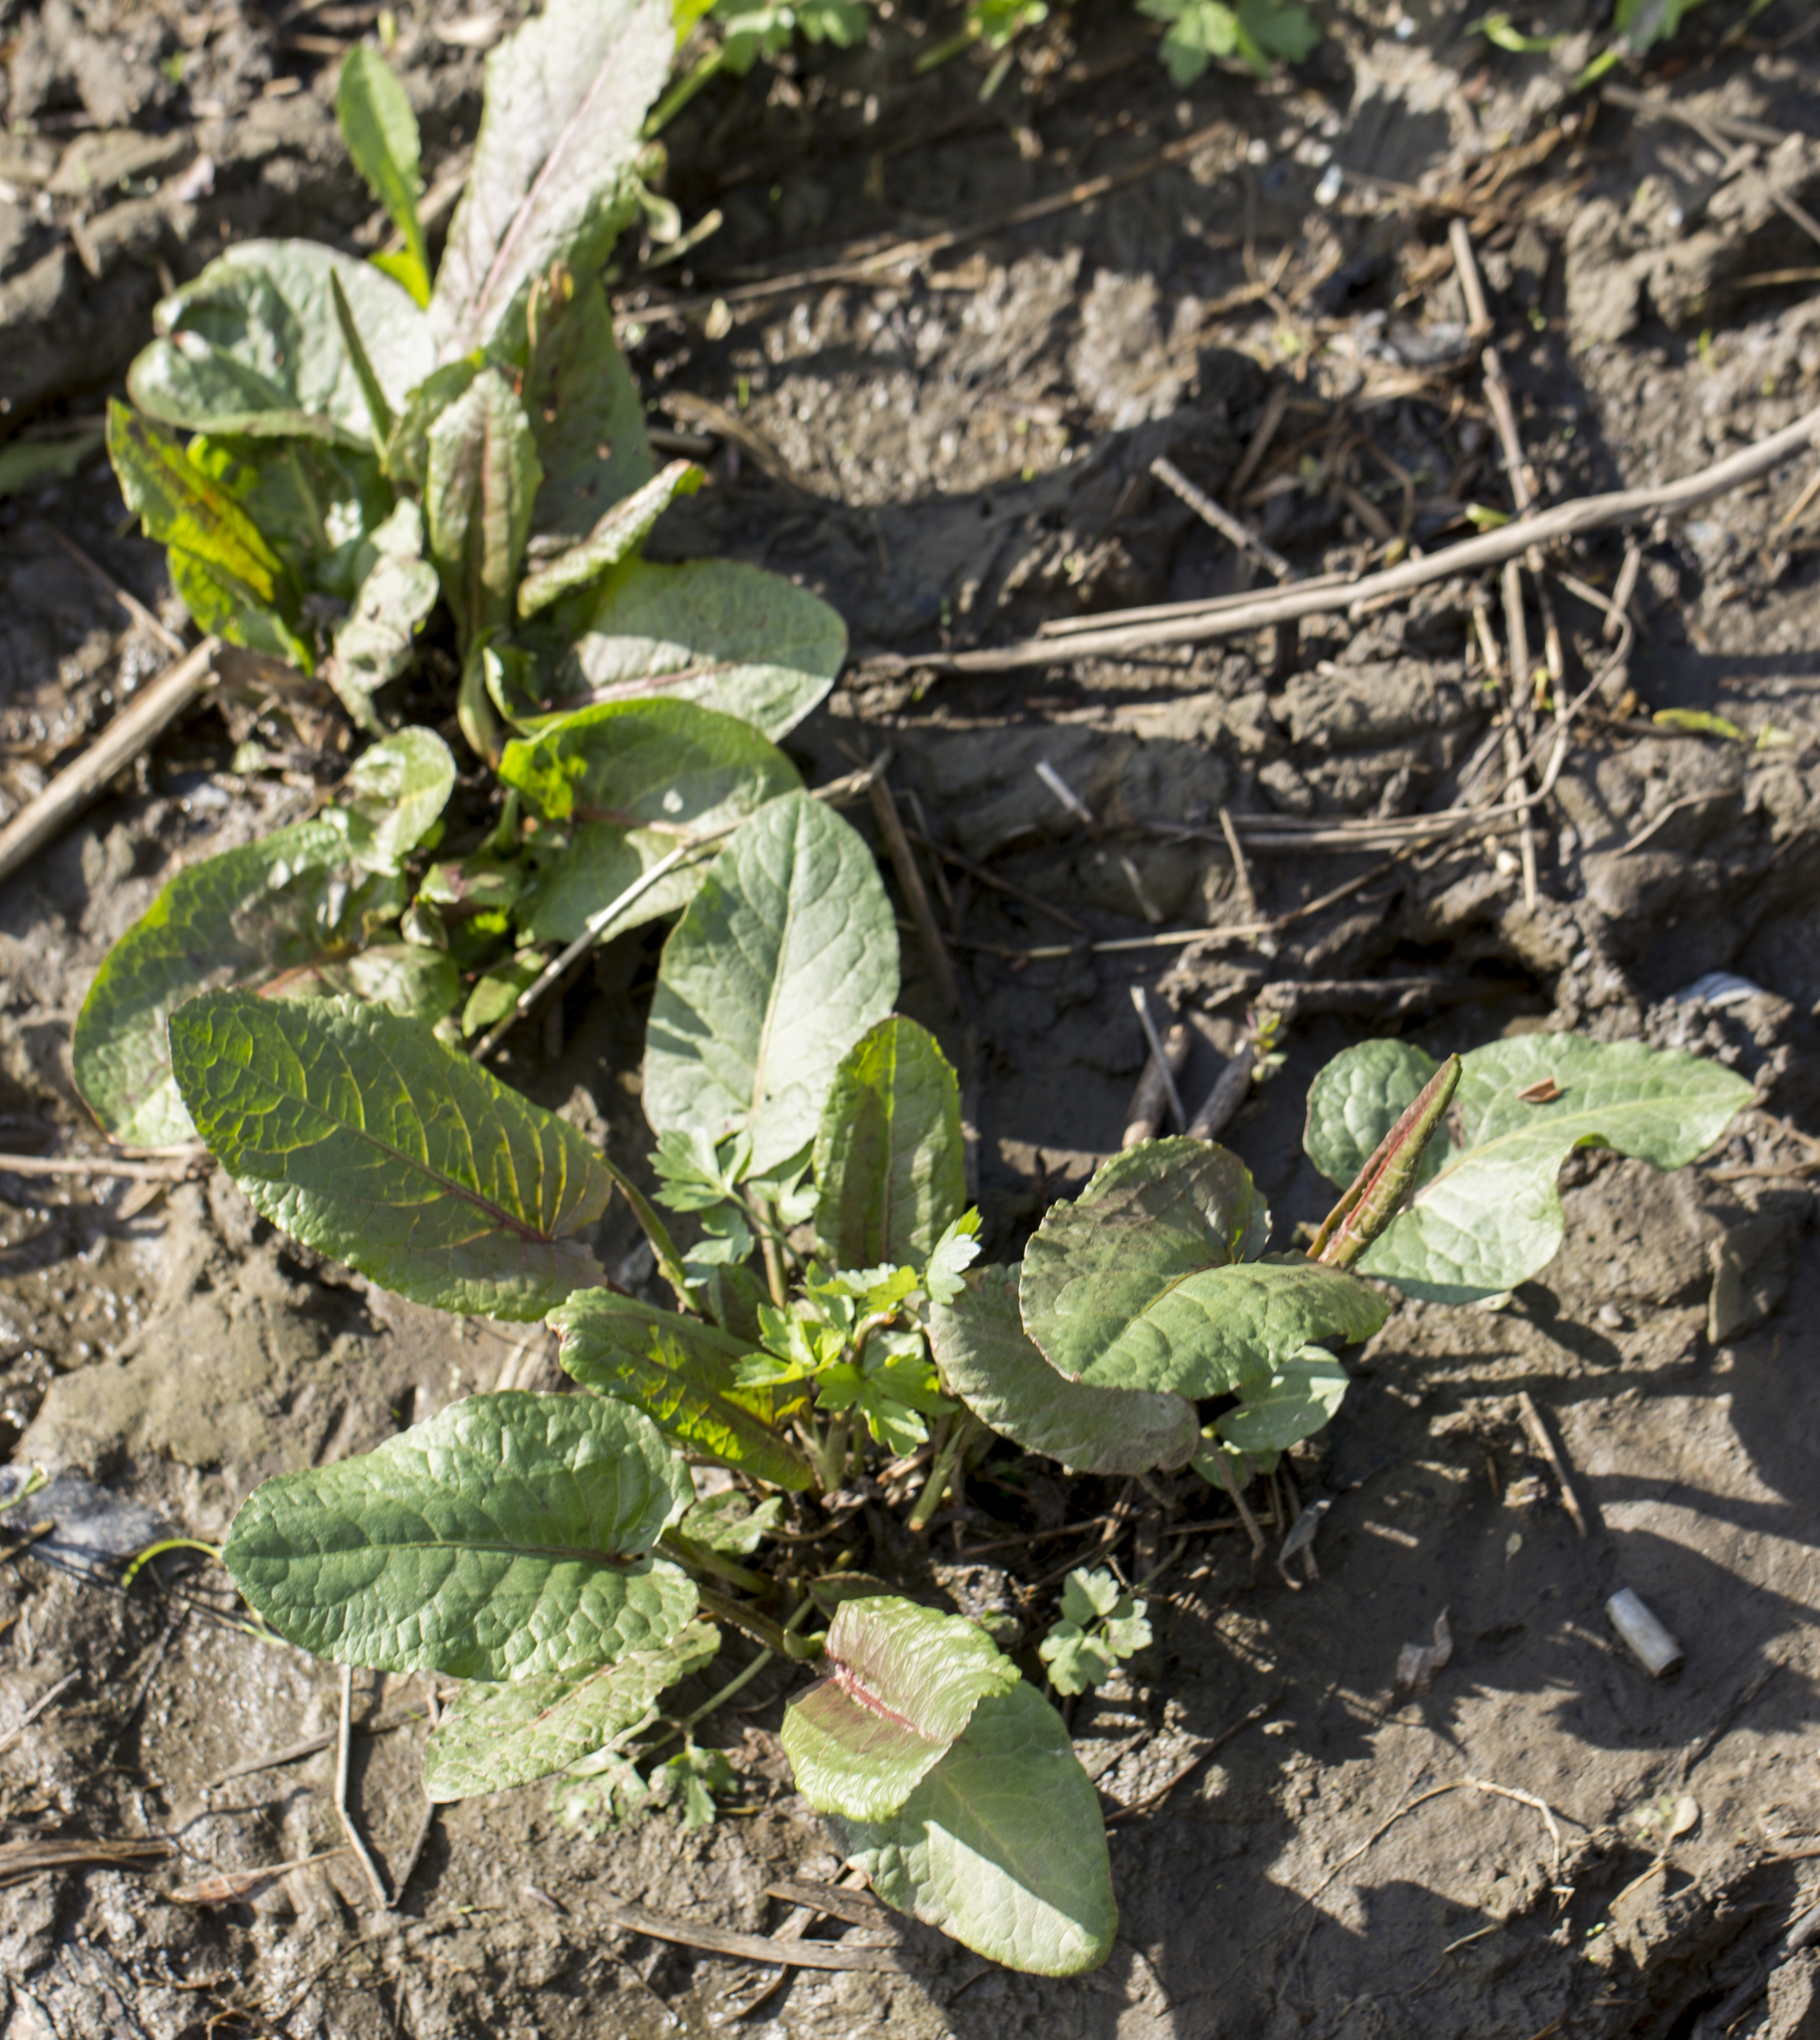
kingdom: Plantae
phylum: Tracheophyta
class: Magnoliopsida
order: Caryophyllales
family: Polygonaceae
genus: Rumex
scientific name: Rumex obtusifolius
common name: Bitter dock
